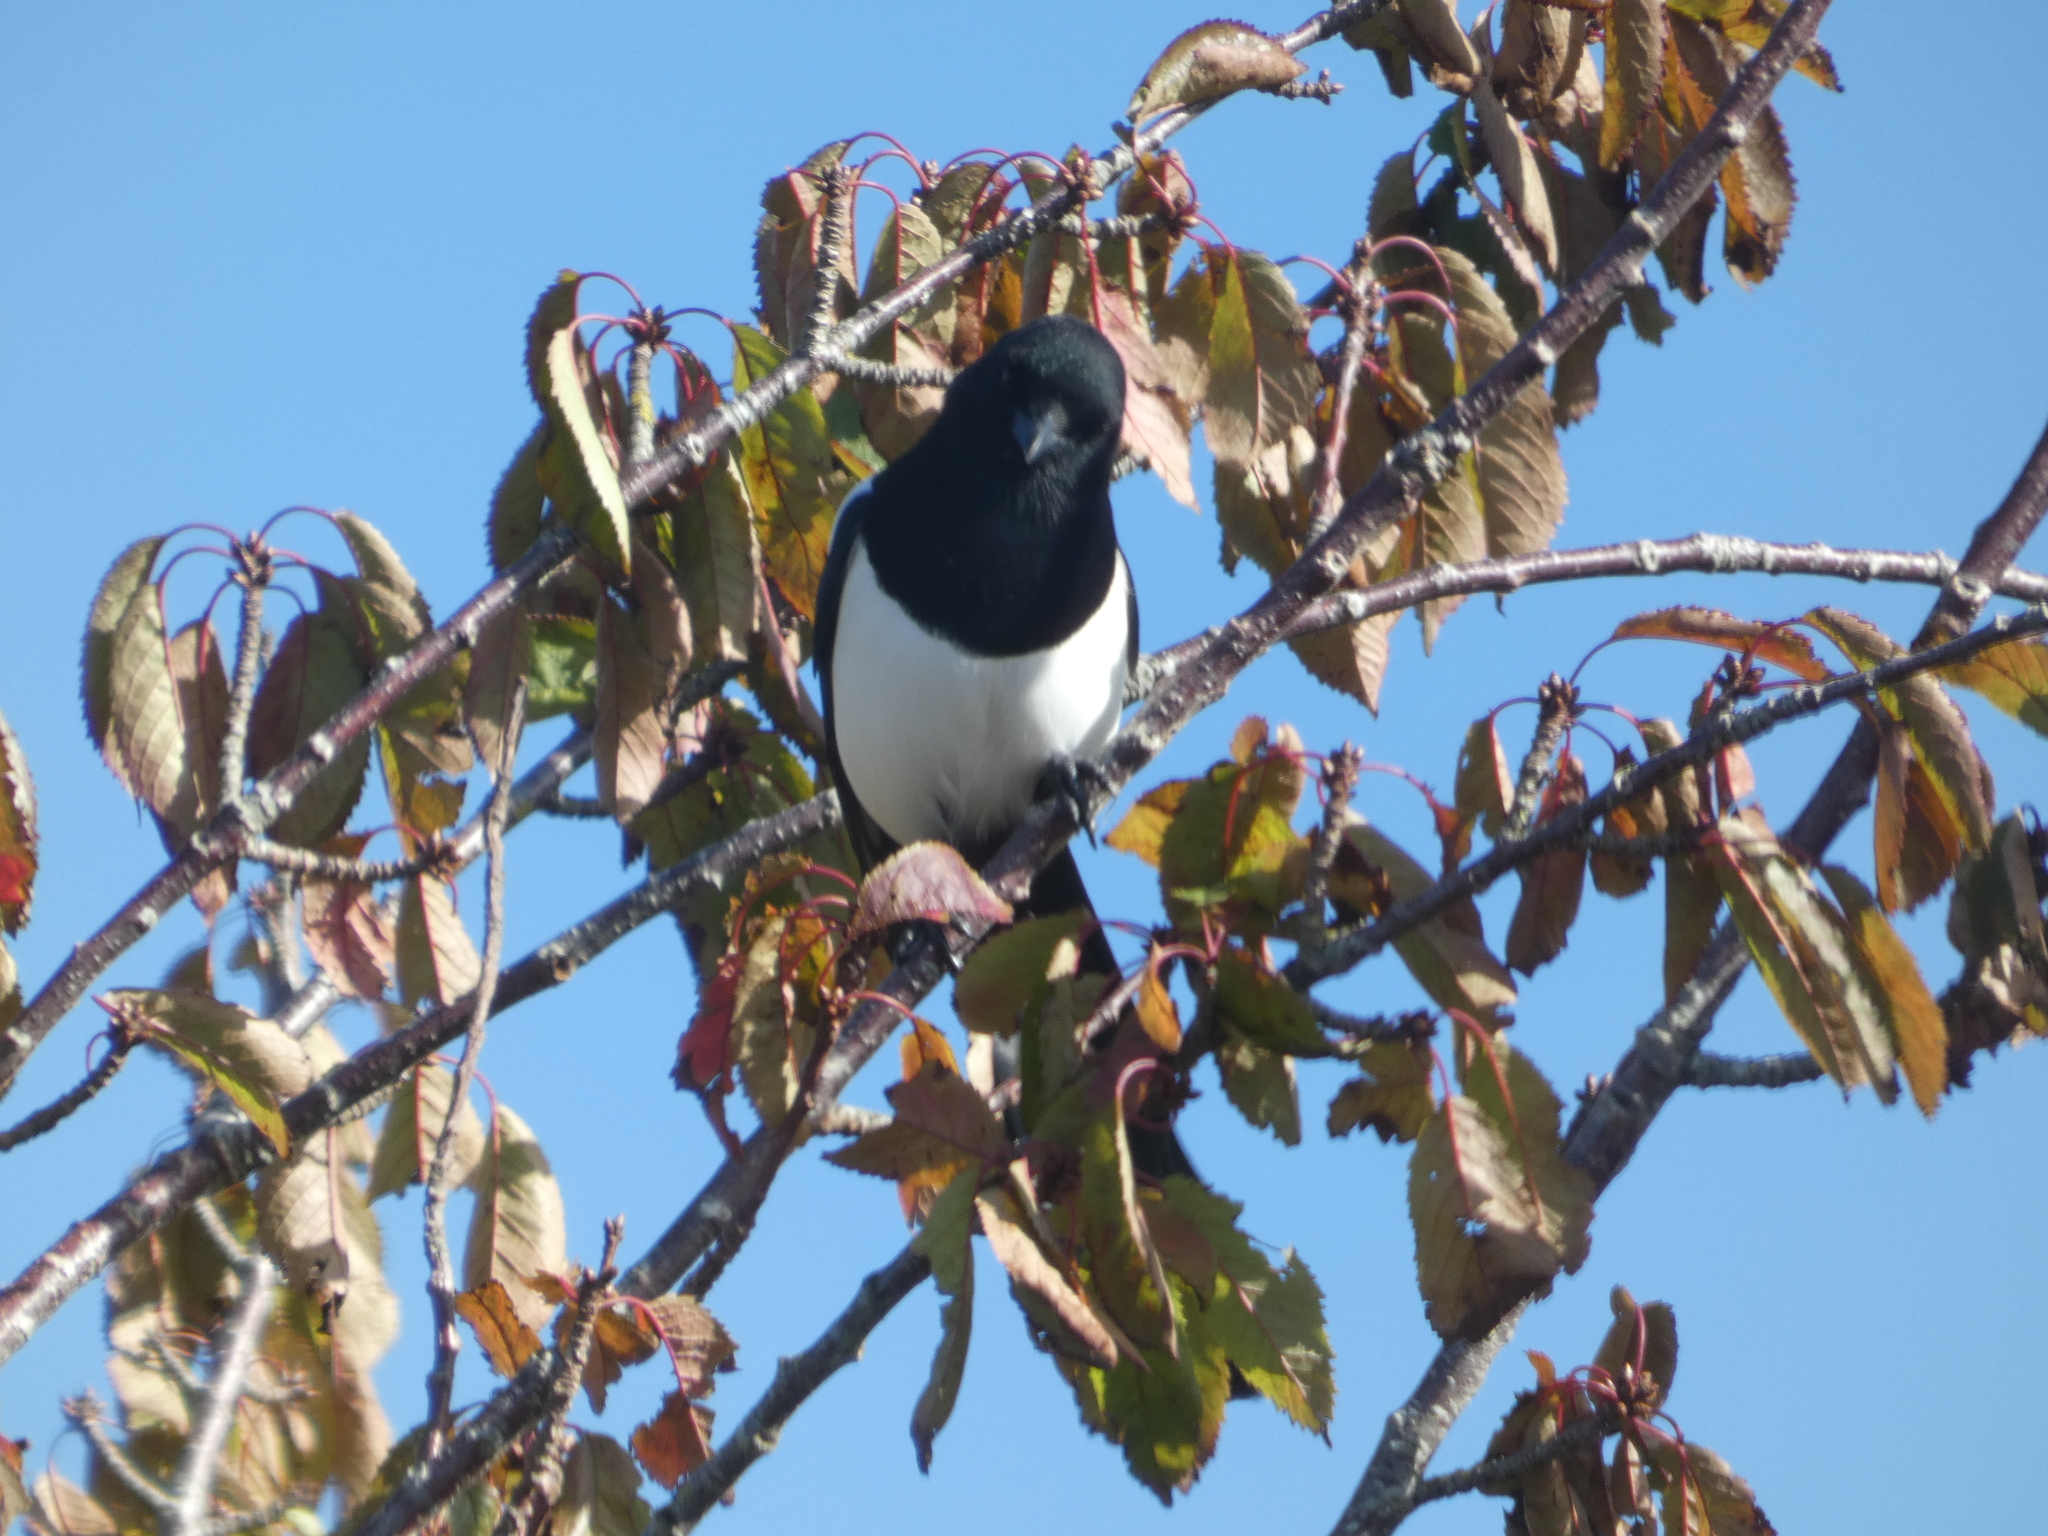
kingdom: Animalia
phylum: Chordata
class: Aves
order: Passeriformes
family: Corvidae
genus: Pica
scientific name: Pica pica
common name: Eurasian magpie
